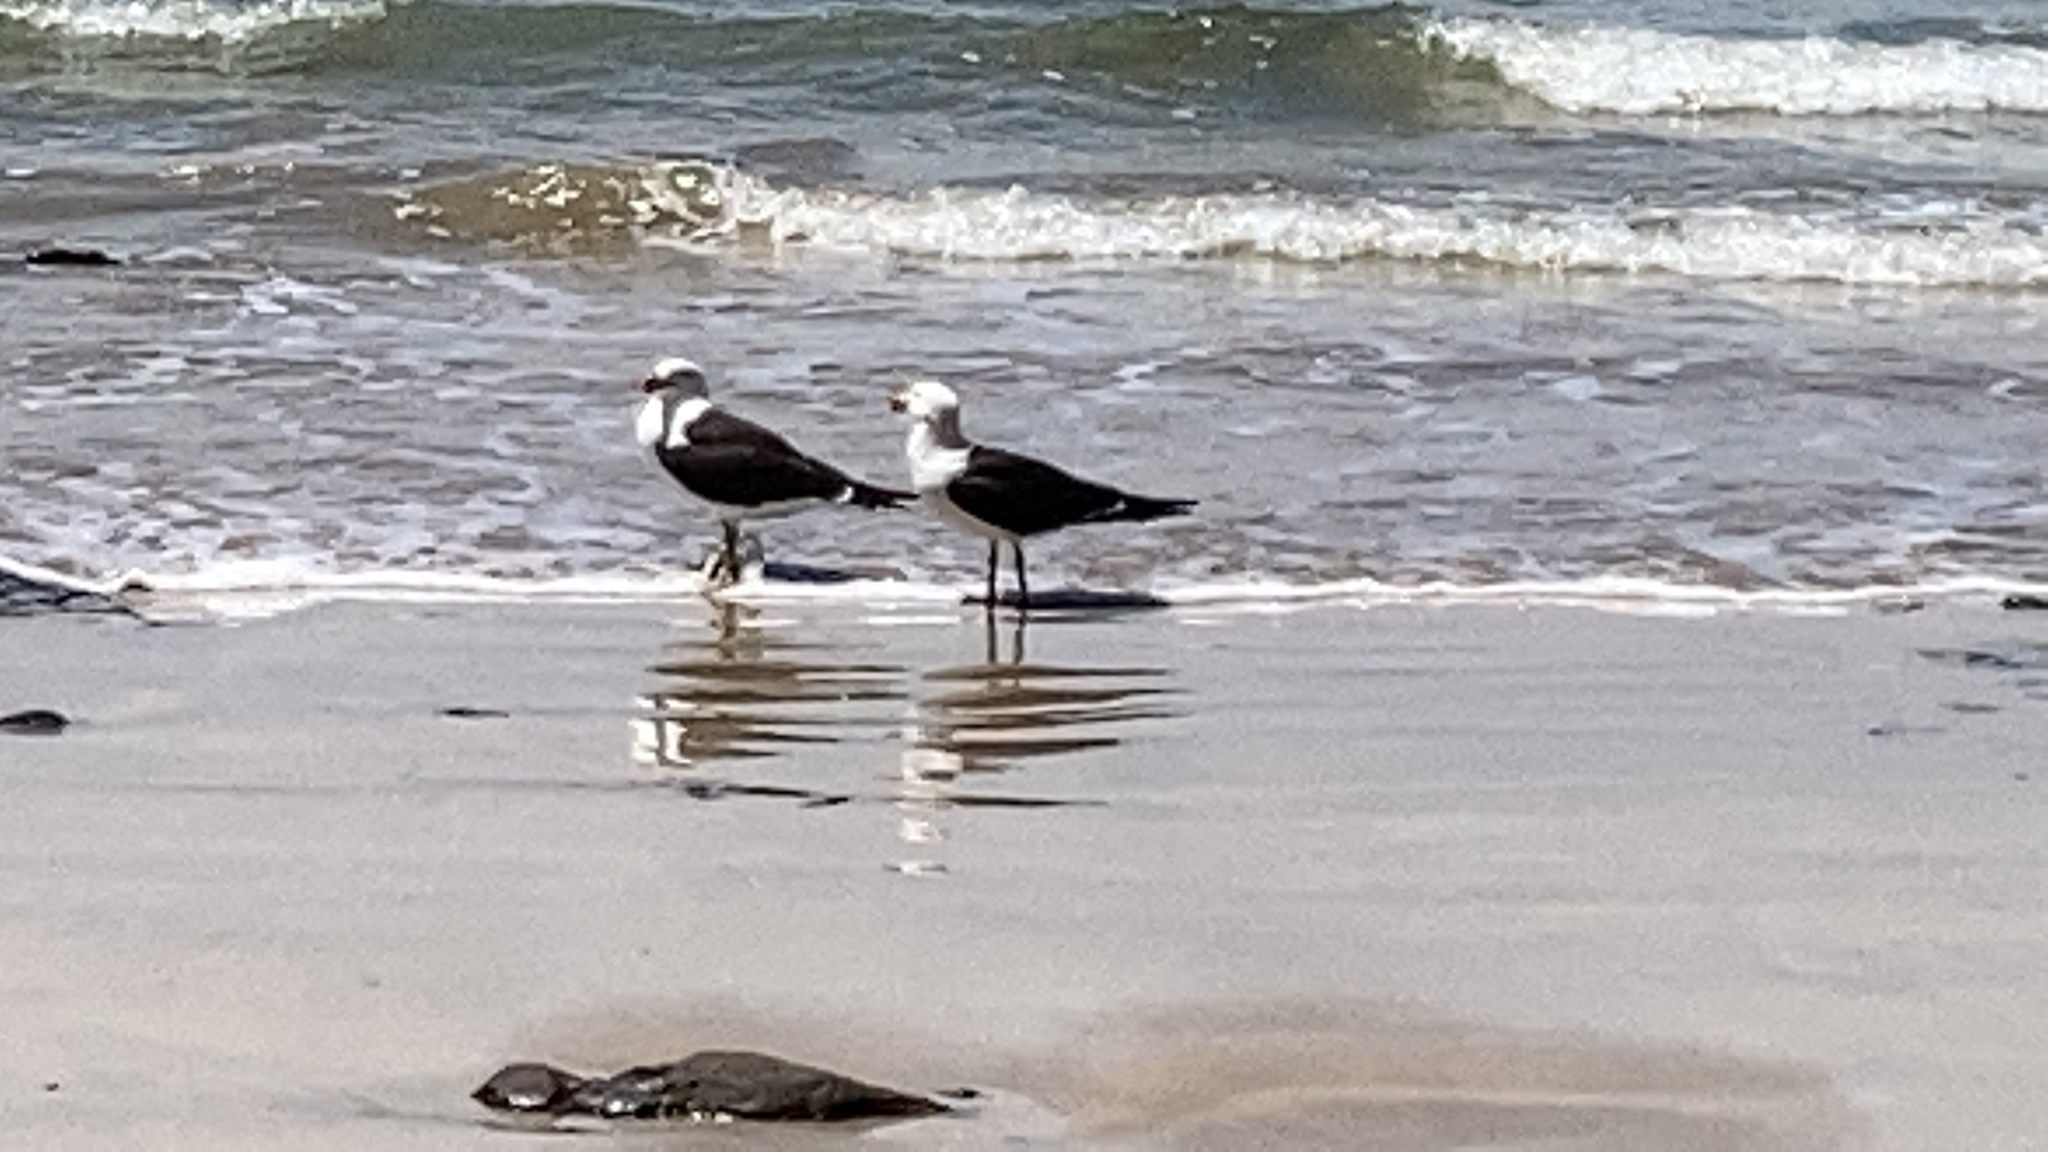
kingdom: Animalia
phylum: Chordata
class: Aves
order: Charadriiformes
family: Laridae
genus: Larus
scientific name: Larus pacificus
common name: Pacific gull
